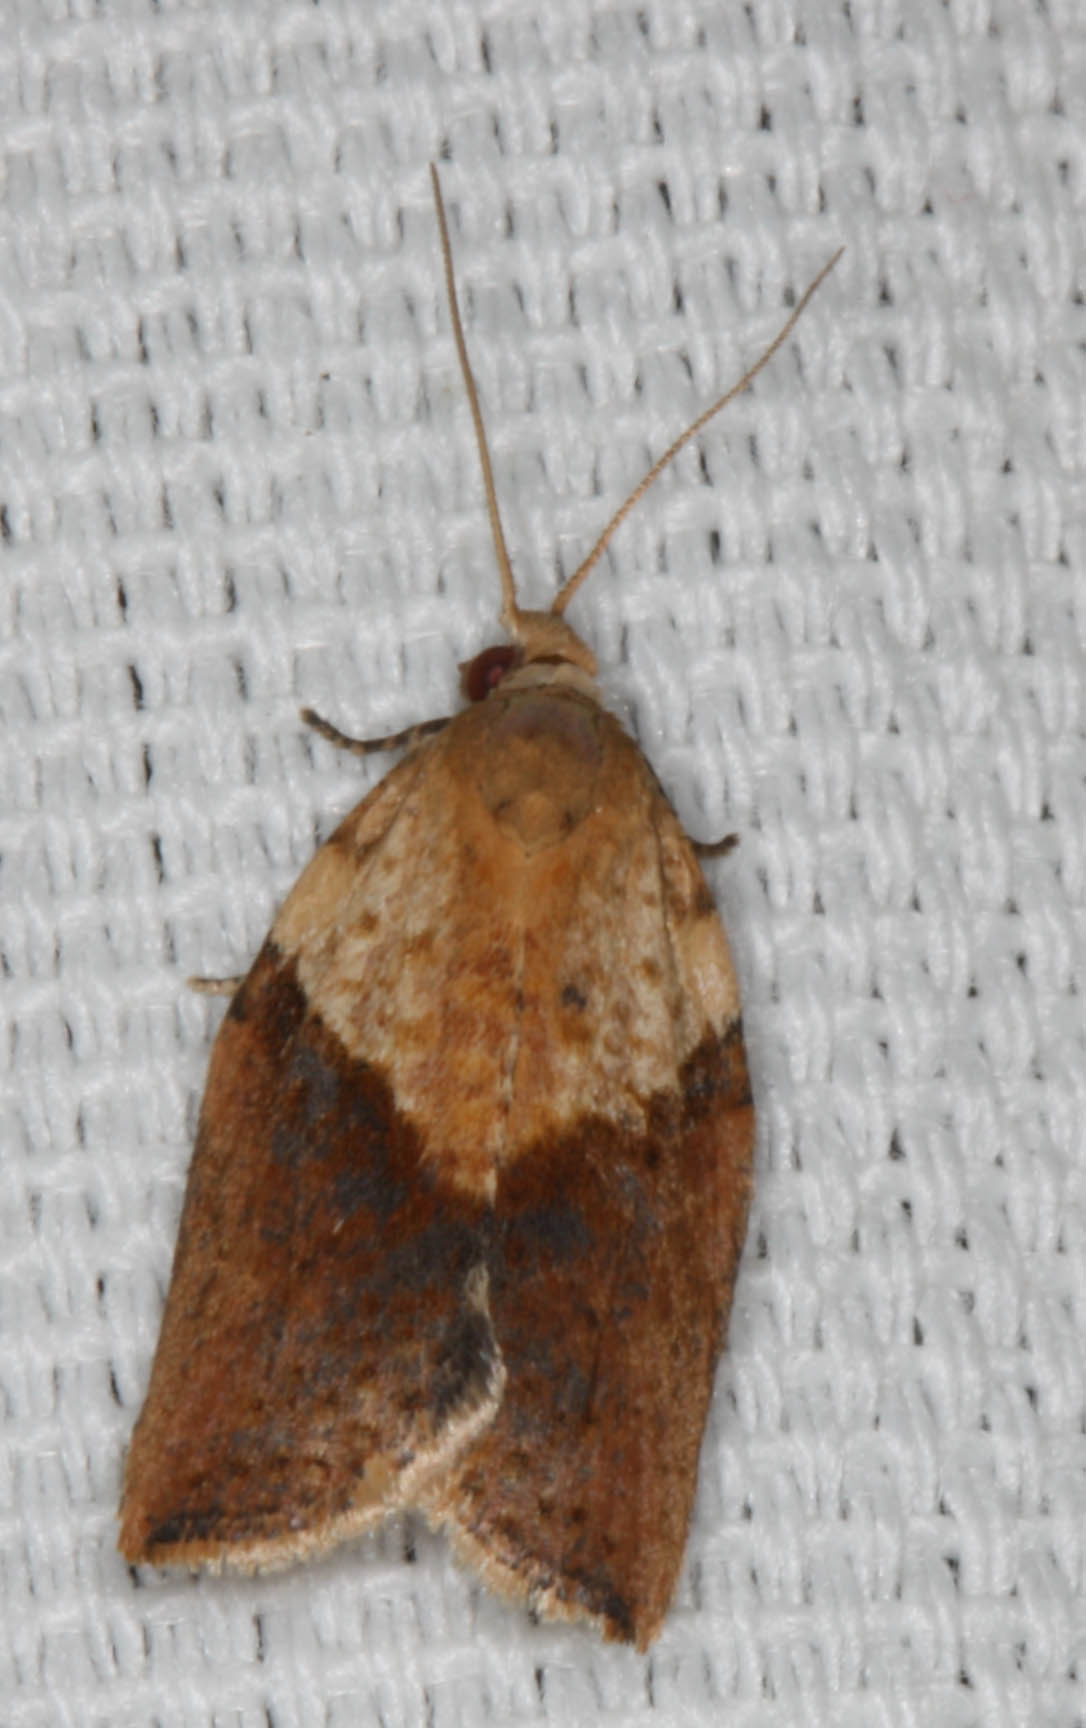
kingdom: Animalia
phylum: Arthropoda
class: Insecta
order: Lepidoptera
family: Tortricidae
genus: Epiphyas
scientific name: Epiphyas postvittana
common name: Light brown apple moth
